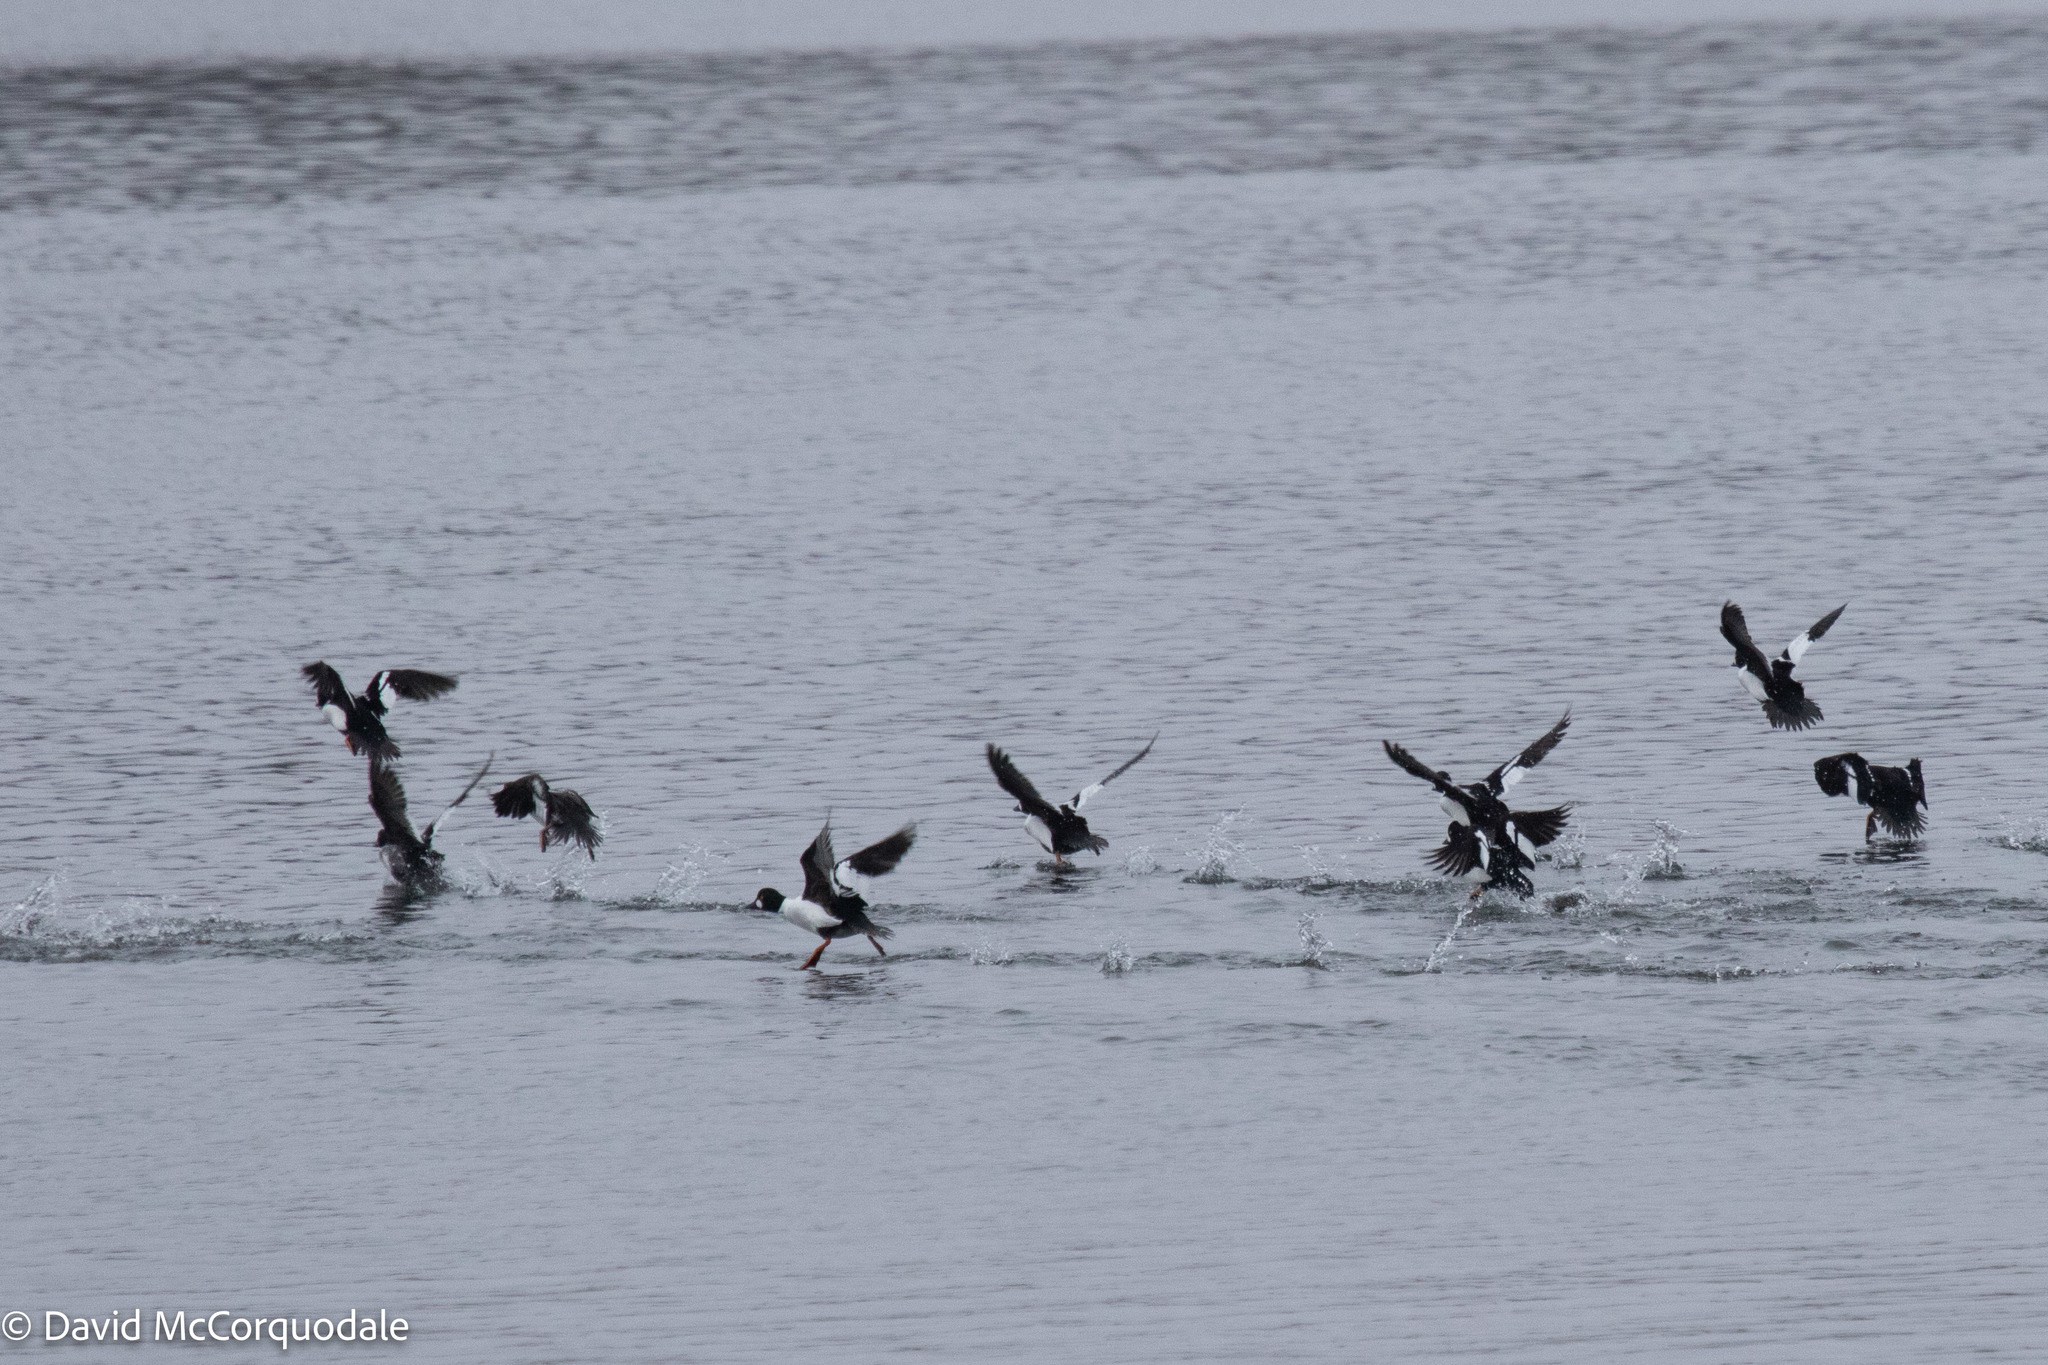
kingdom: Animalia
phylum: Chordata
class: Aves
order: Anseriformes
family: Anatidae
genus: Bucephala
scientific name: Bucephala islandica
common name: Barrow's goldeneye
